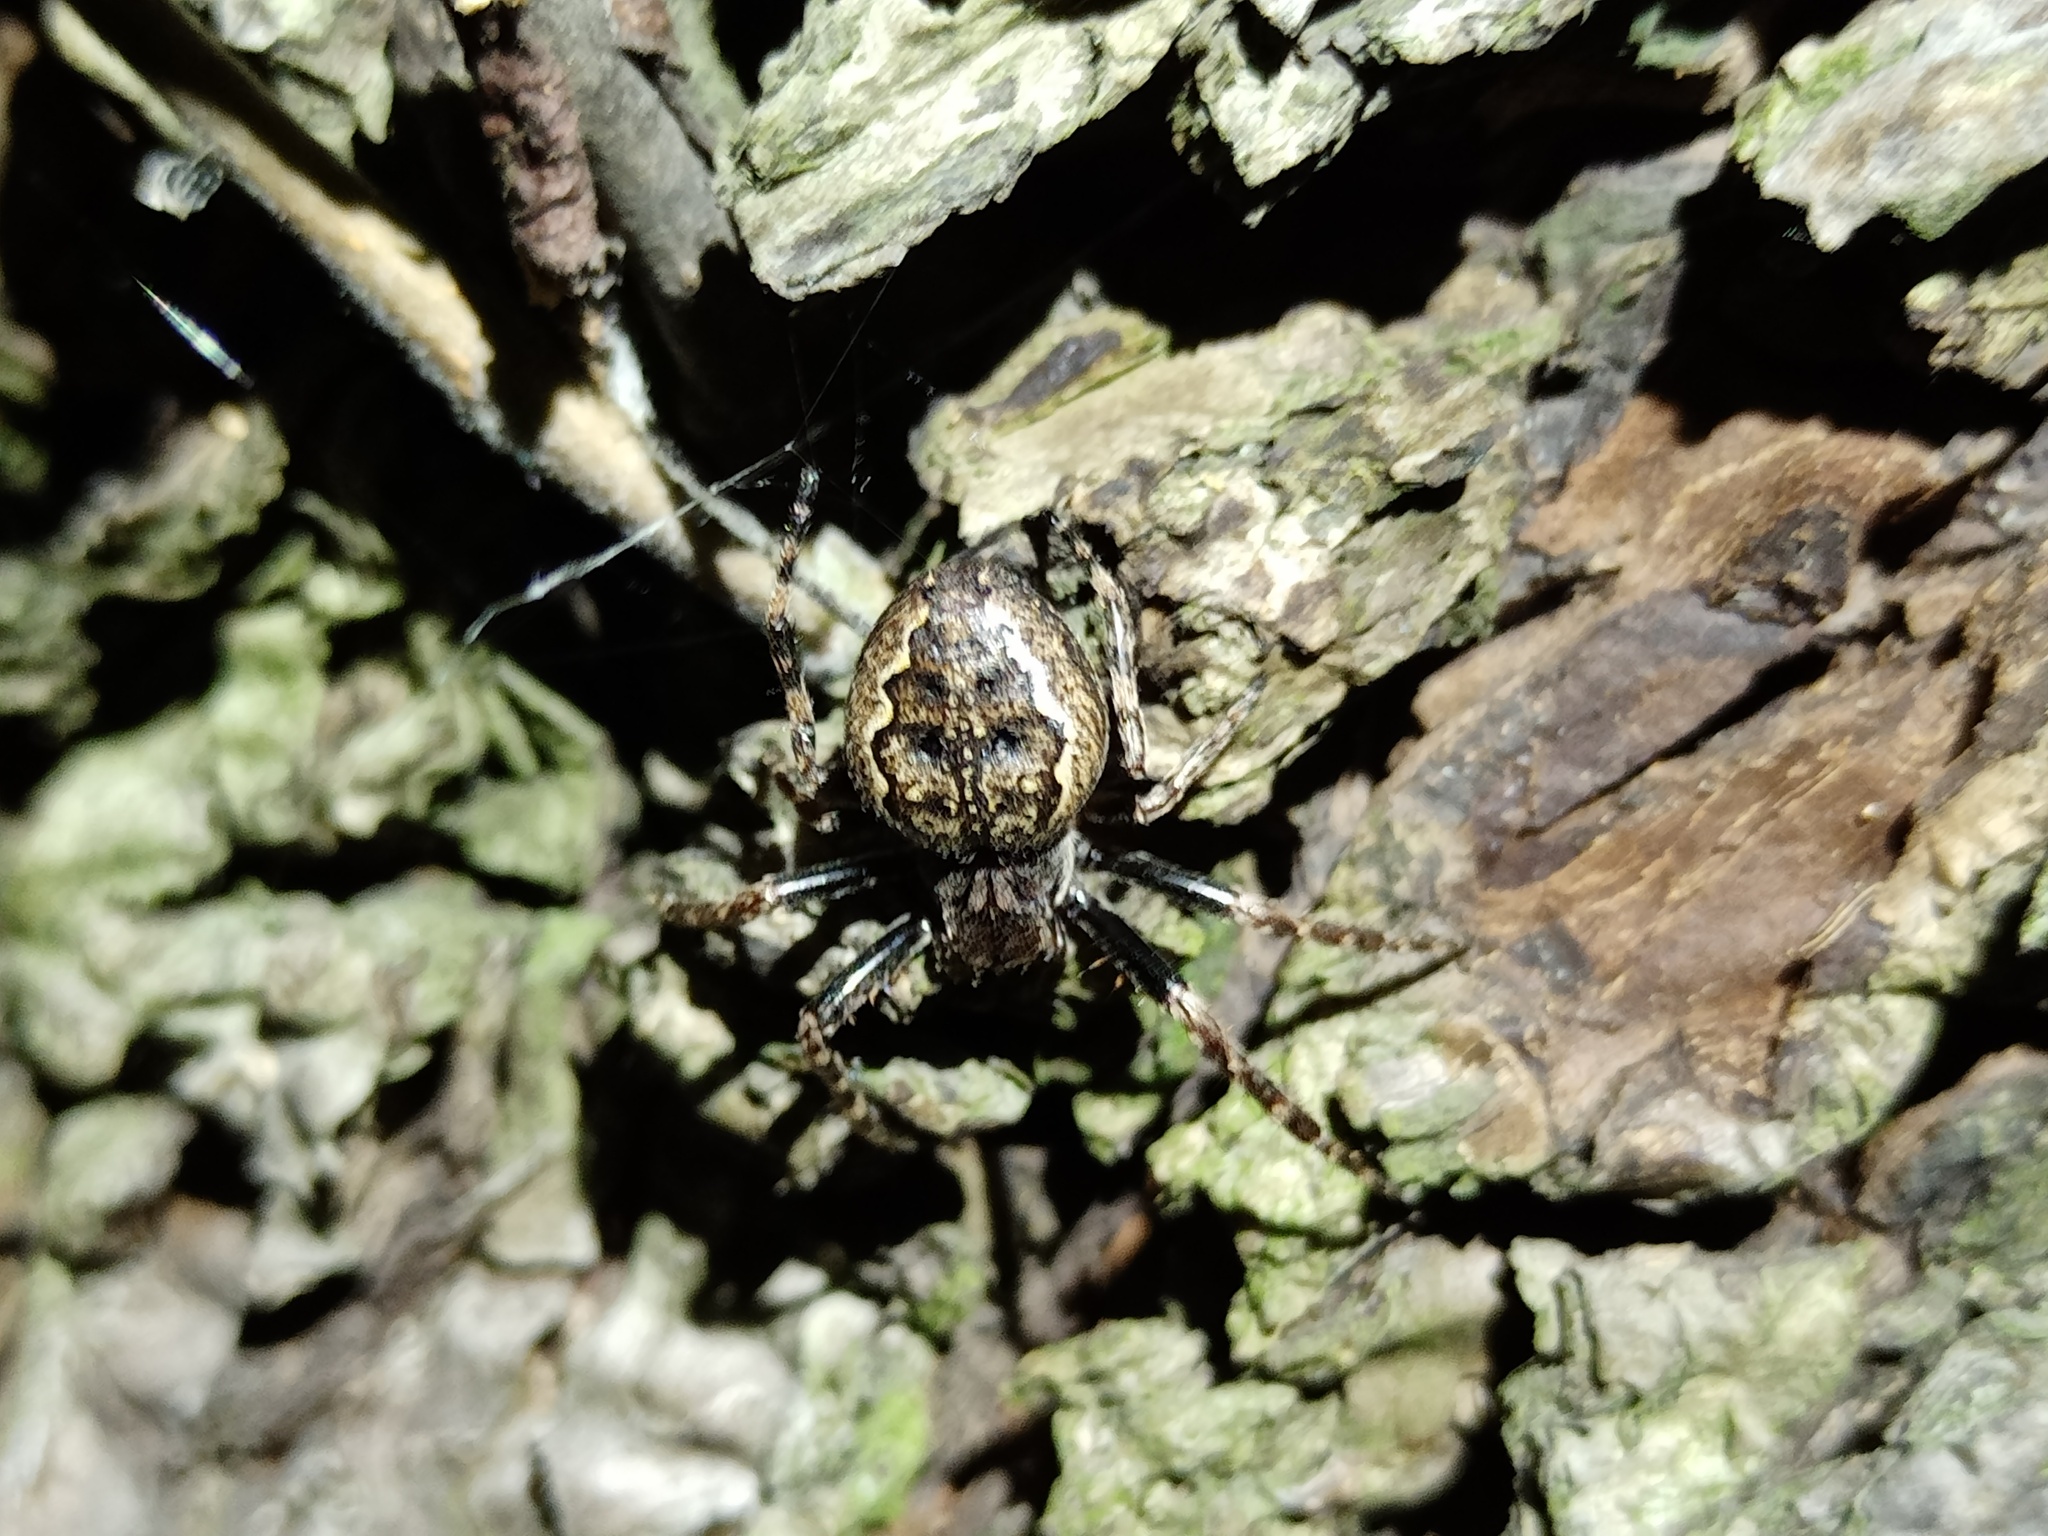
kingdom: Animalia
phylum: Arthropoda
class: Arachnida
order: Araneae
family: Araneidae
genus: Nuctenea
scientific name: Nuctenea umbratica
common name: Toad spider
